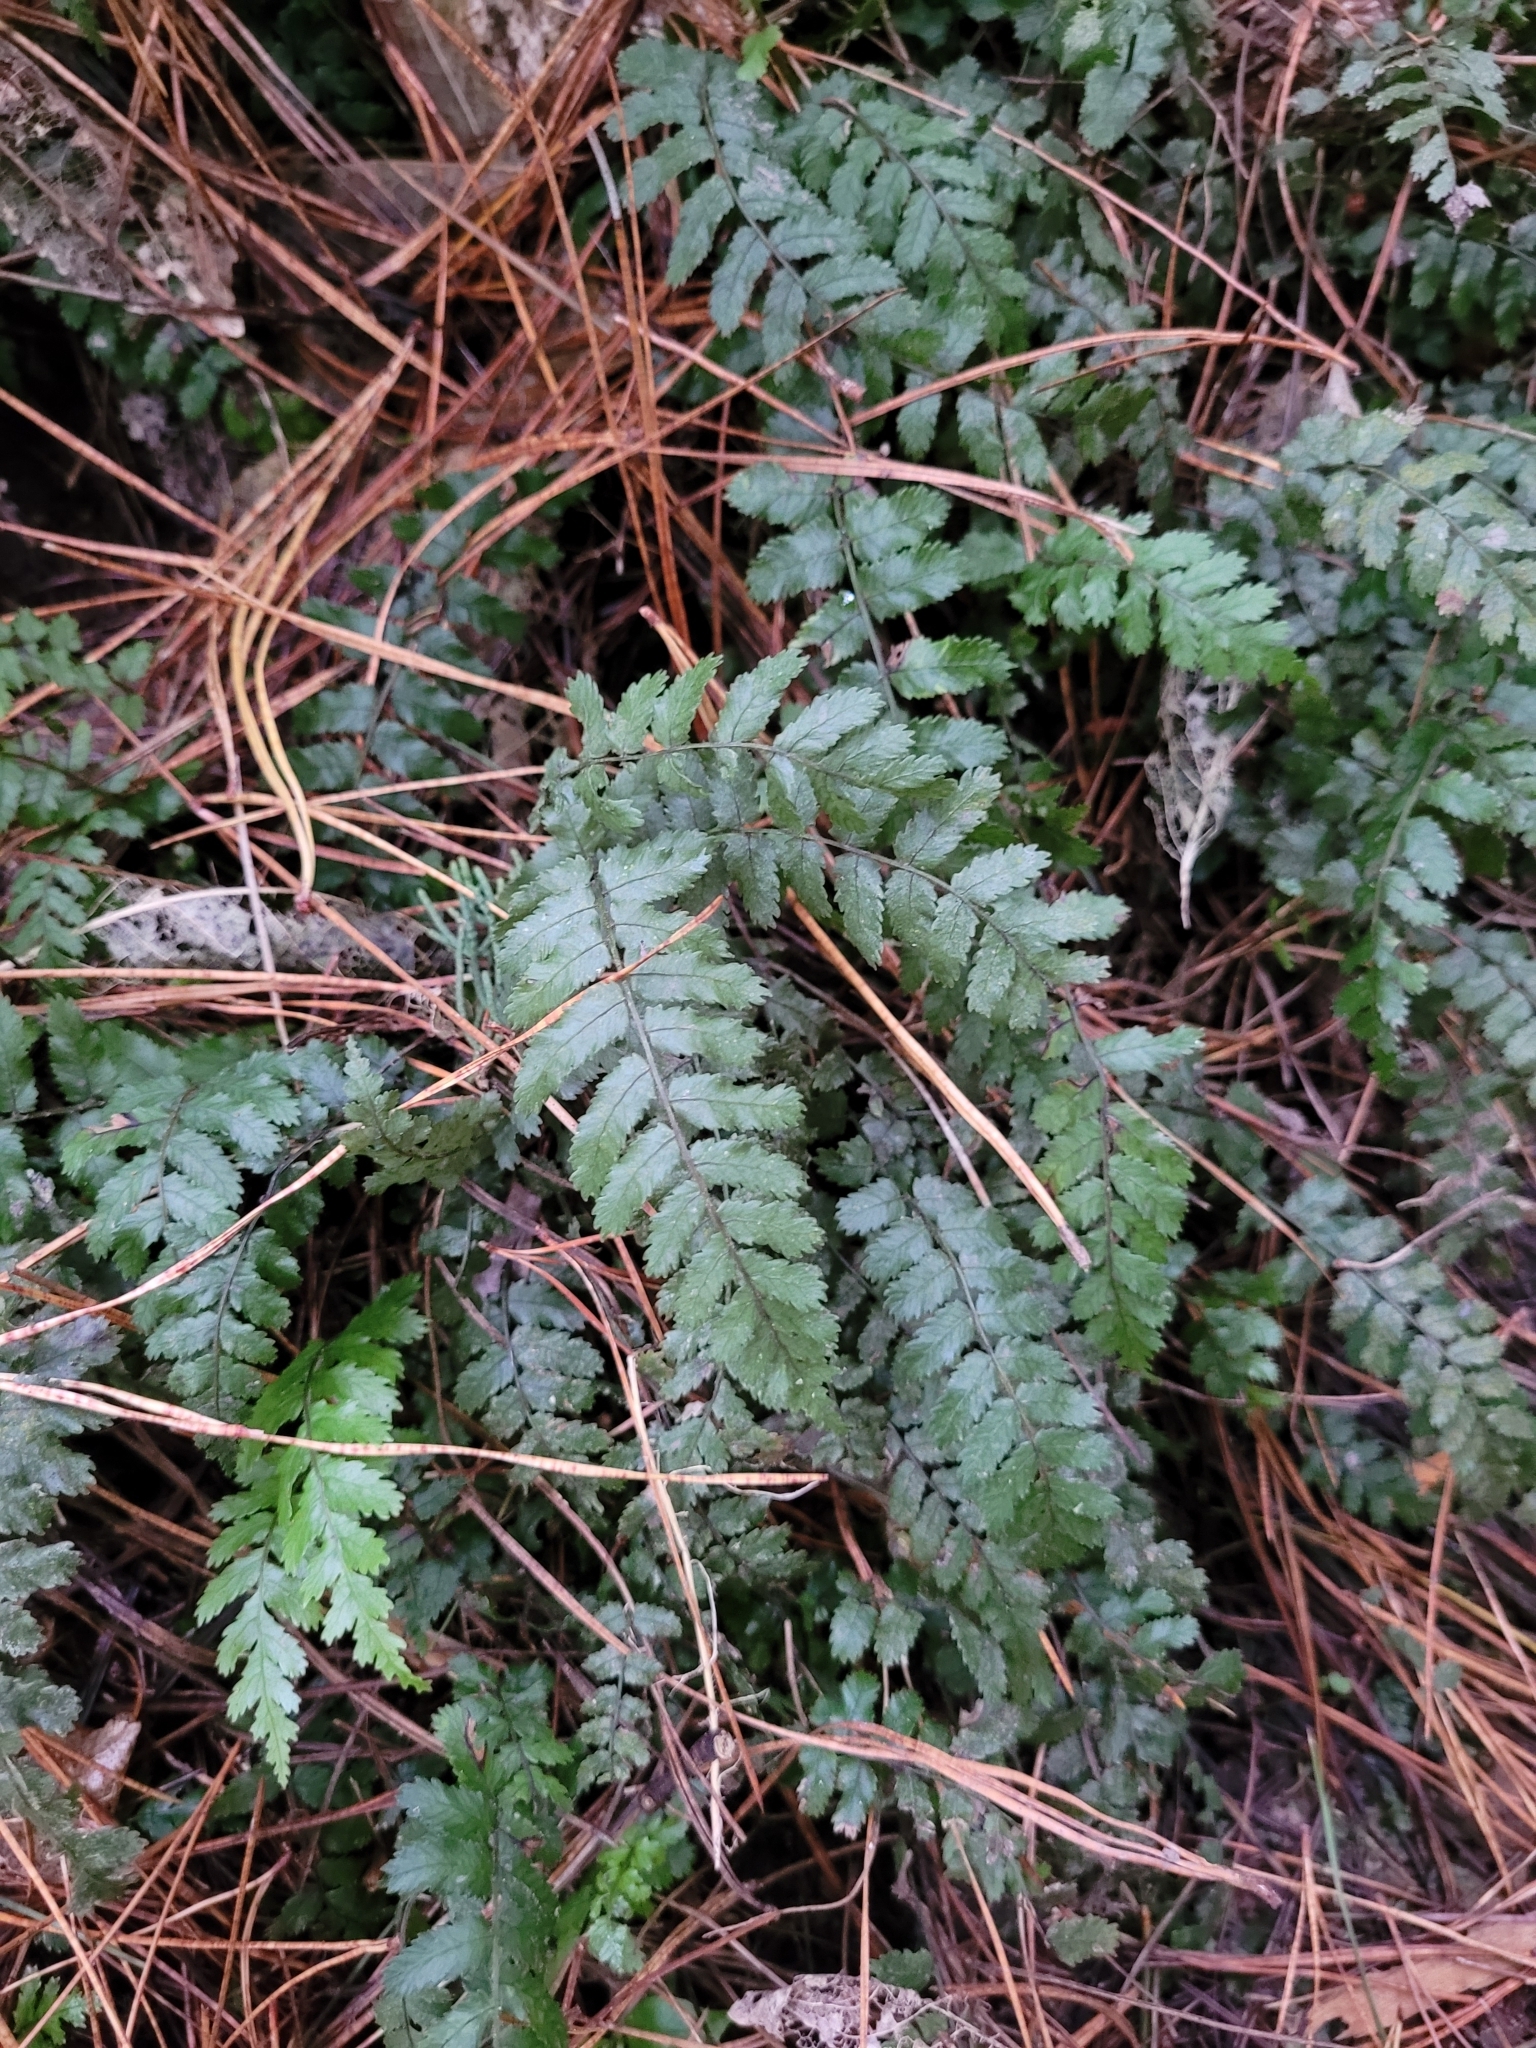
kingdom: Plantae
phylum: Tracheophyta
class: Polypodiopsida
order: Polypodiales
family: Blechnaceae
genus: Icarus
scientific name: Icarus filiformis
